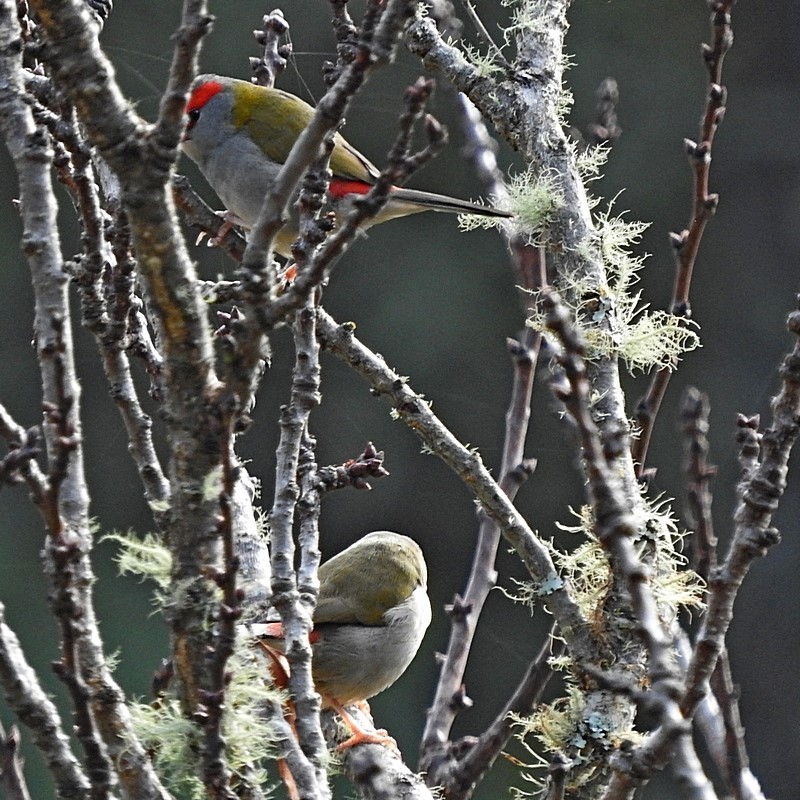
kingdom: Animalia
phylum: Chordata
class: Aves
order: Passeriformes
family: Estrildidae
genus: Neochmia
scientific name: Neochmia temporalis
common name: Red-browed finch
